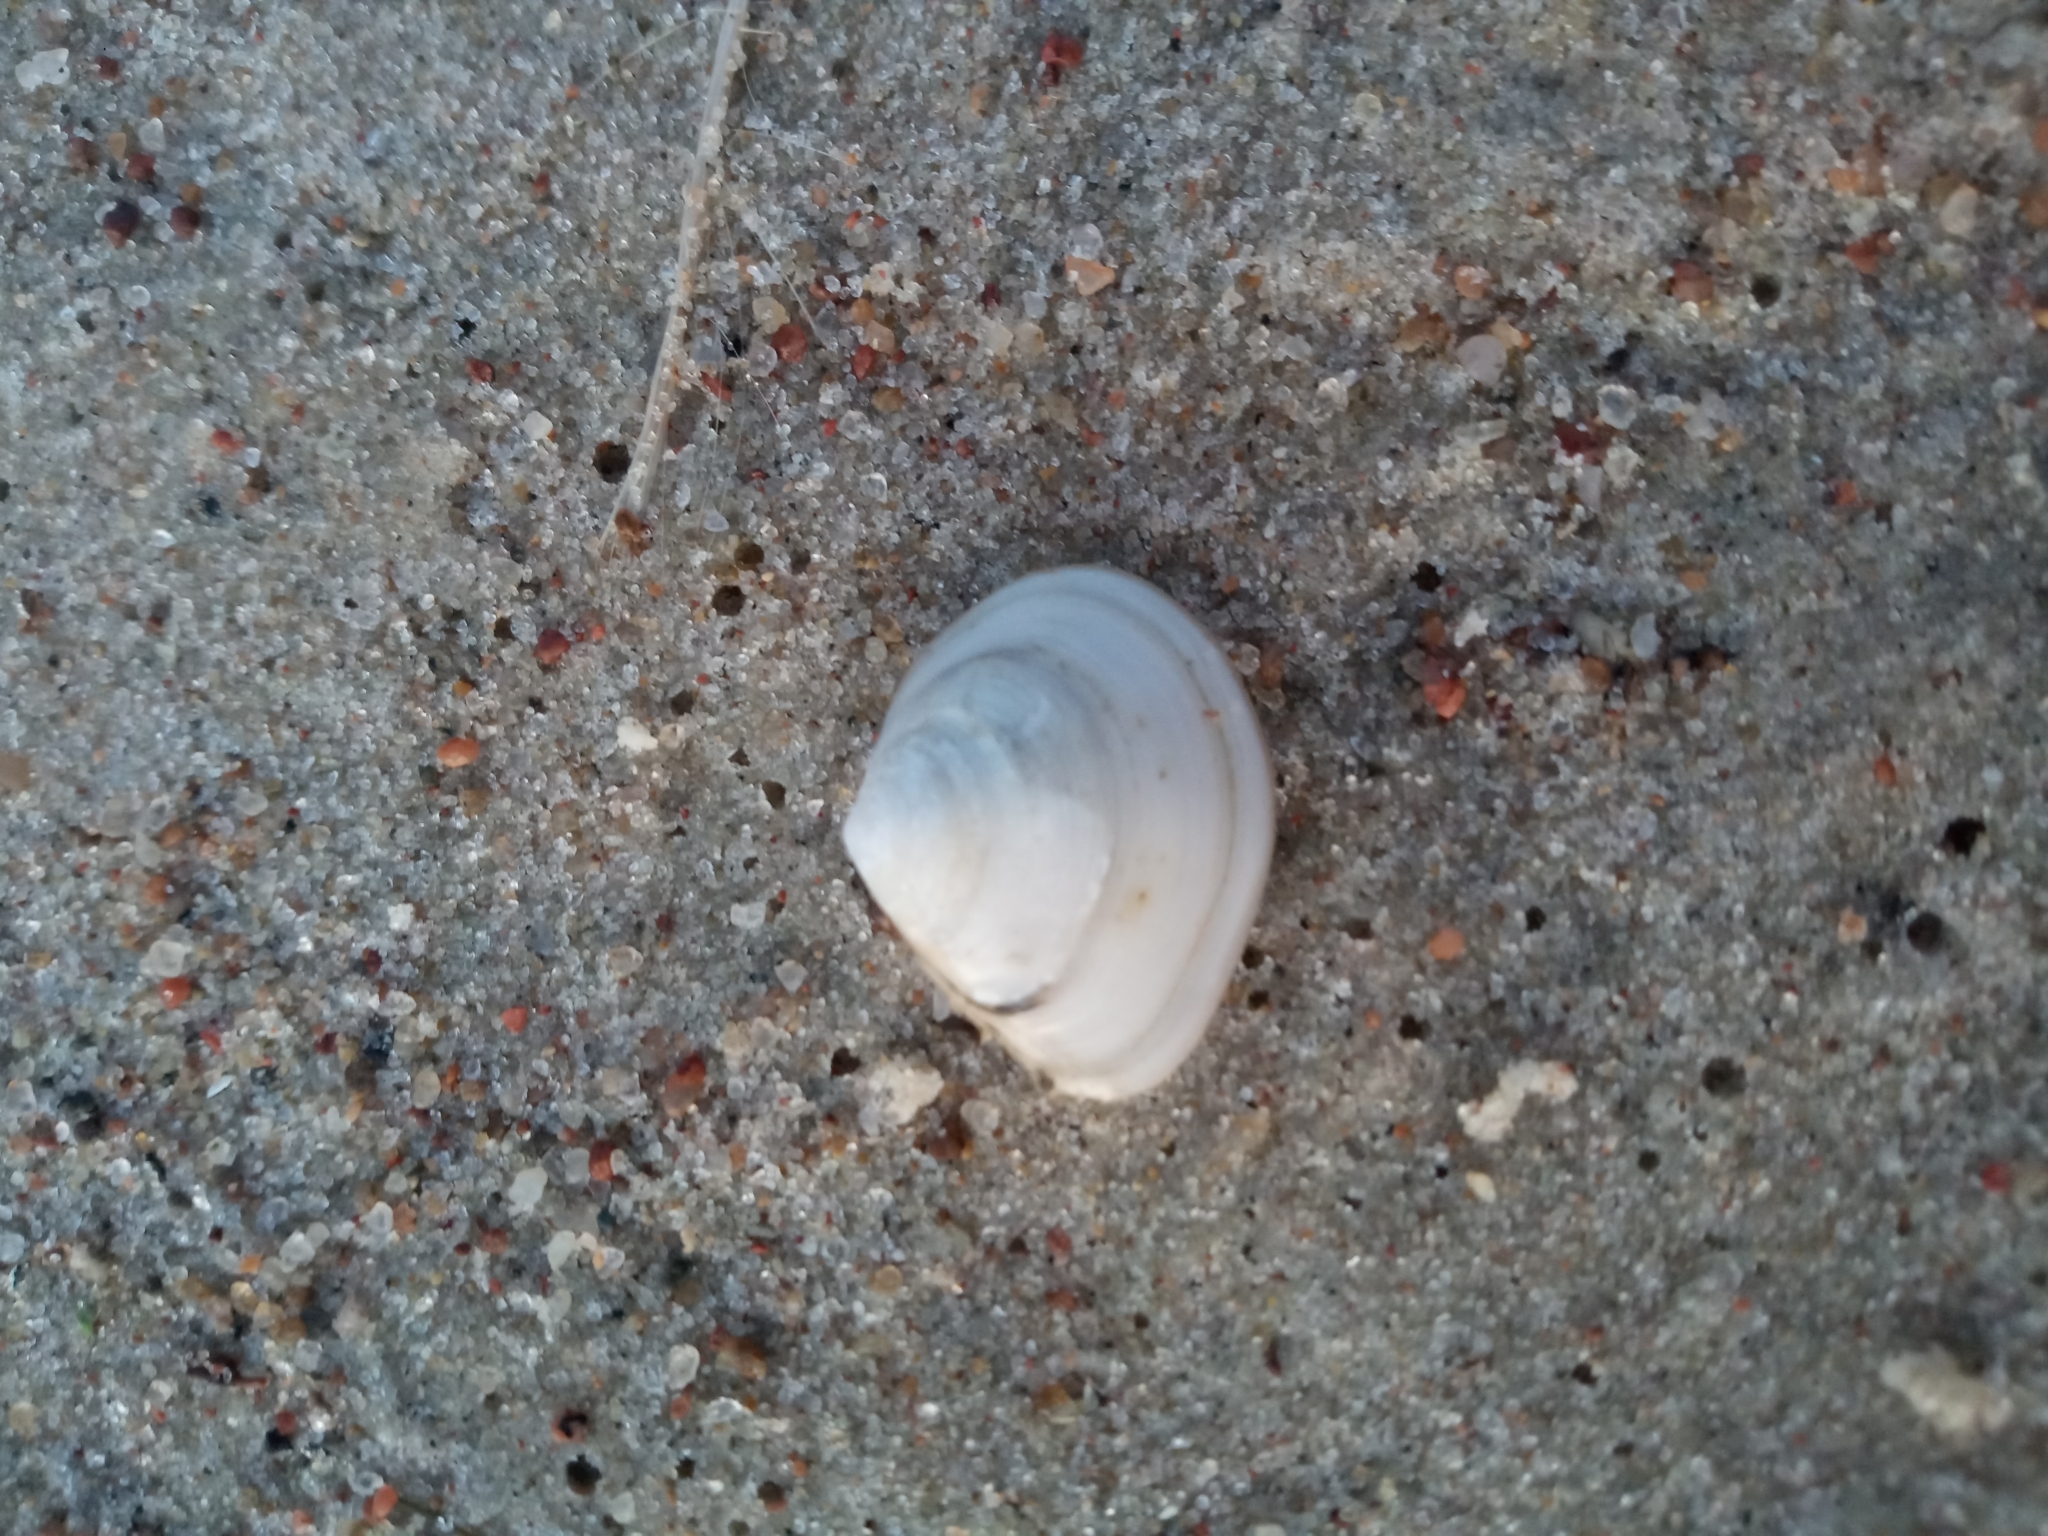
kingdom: Animalia
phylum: Mollusca
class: Bivalvia
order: Cardiida
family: Tellinidae
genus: Macoma
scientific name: Macoma balthica
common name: Baltic tellin
